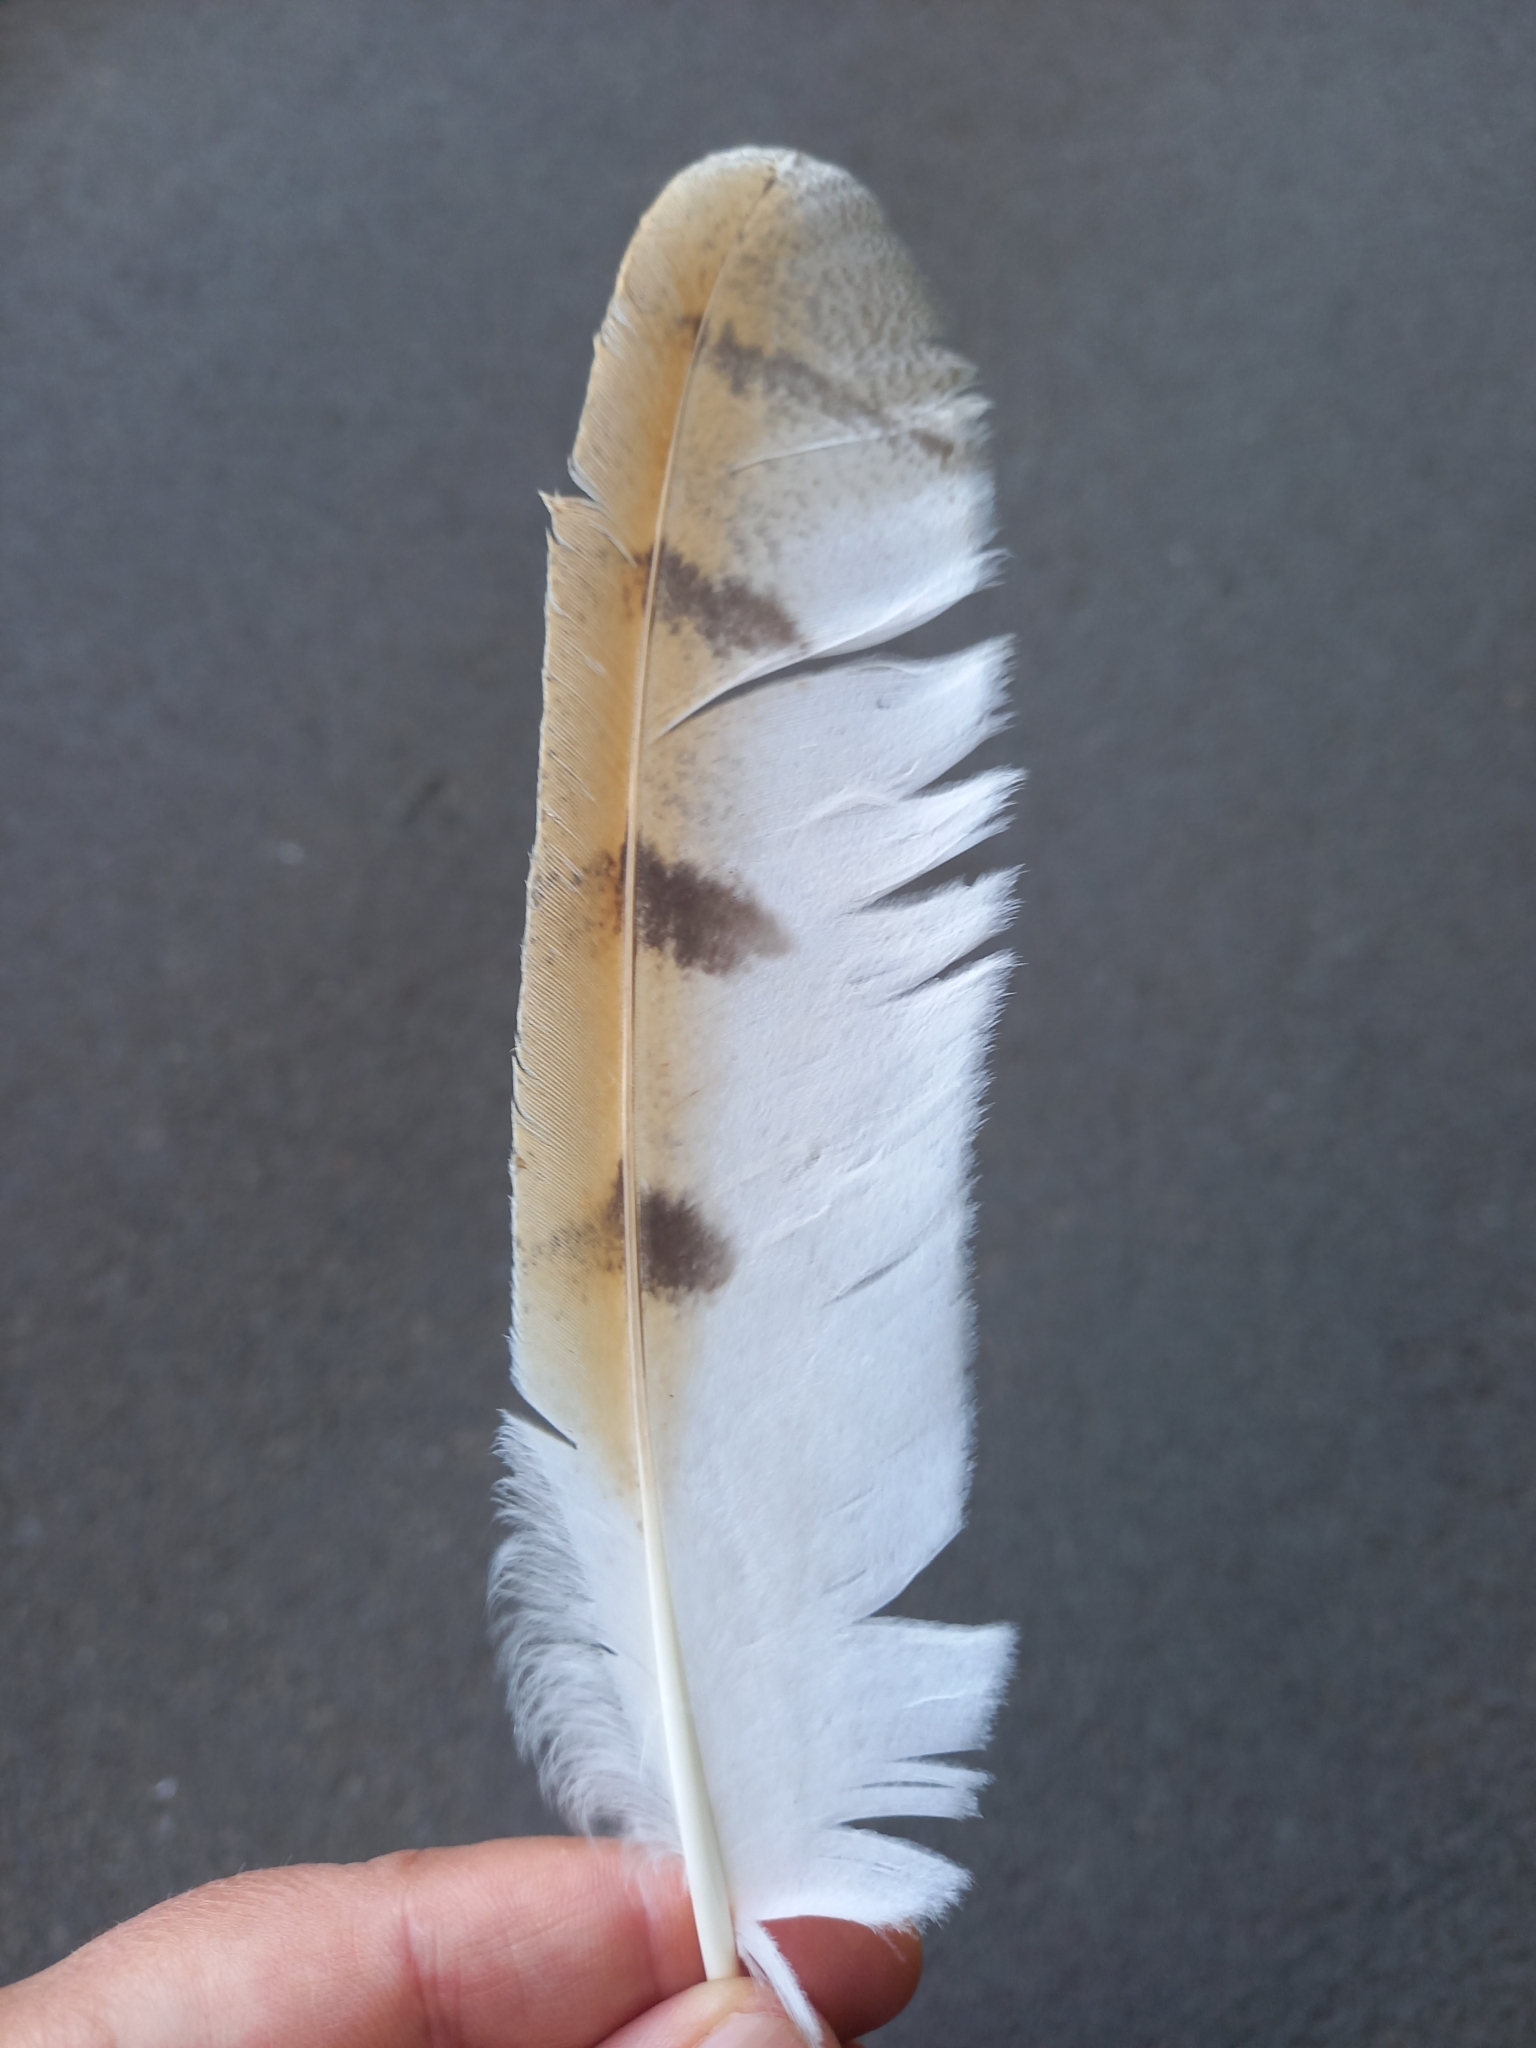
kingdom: Animalia
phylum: Chordata
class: Aves
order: Strigiformes
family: Tytonidae
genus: Tyto
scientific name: Tyto alba
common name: Barn owl
